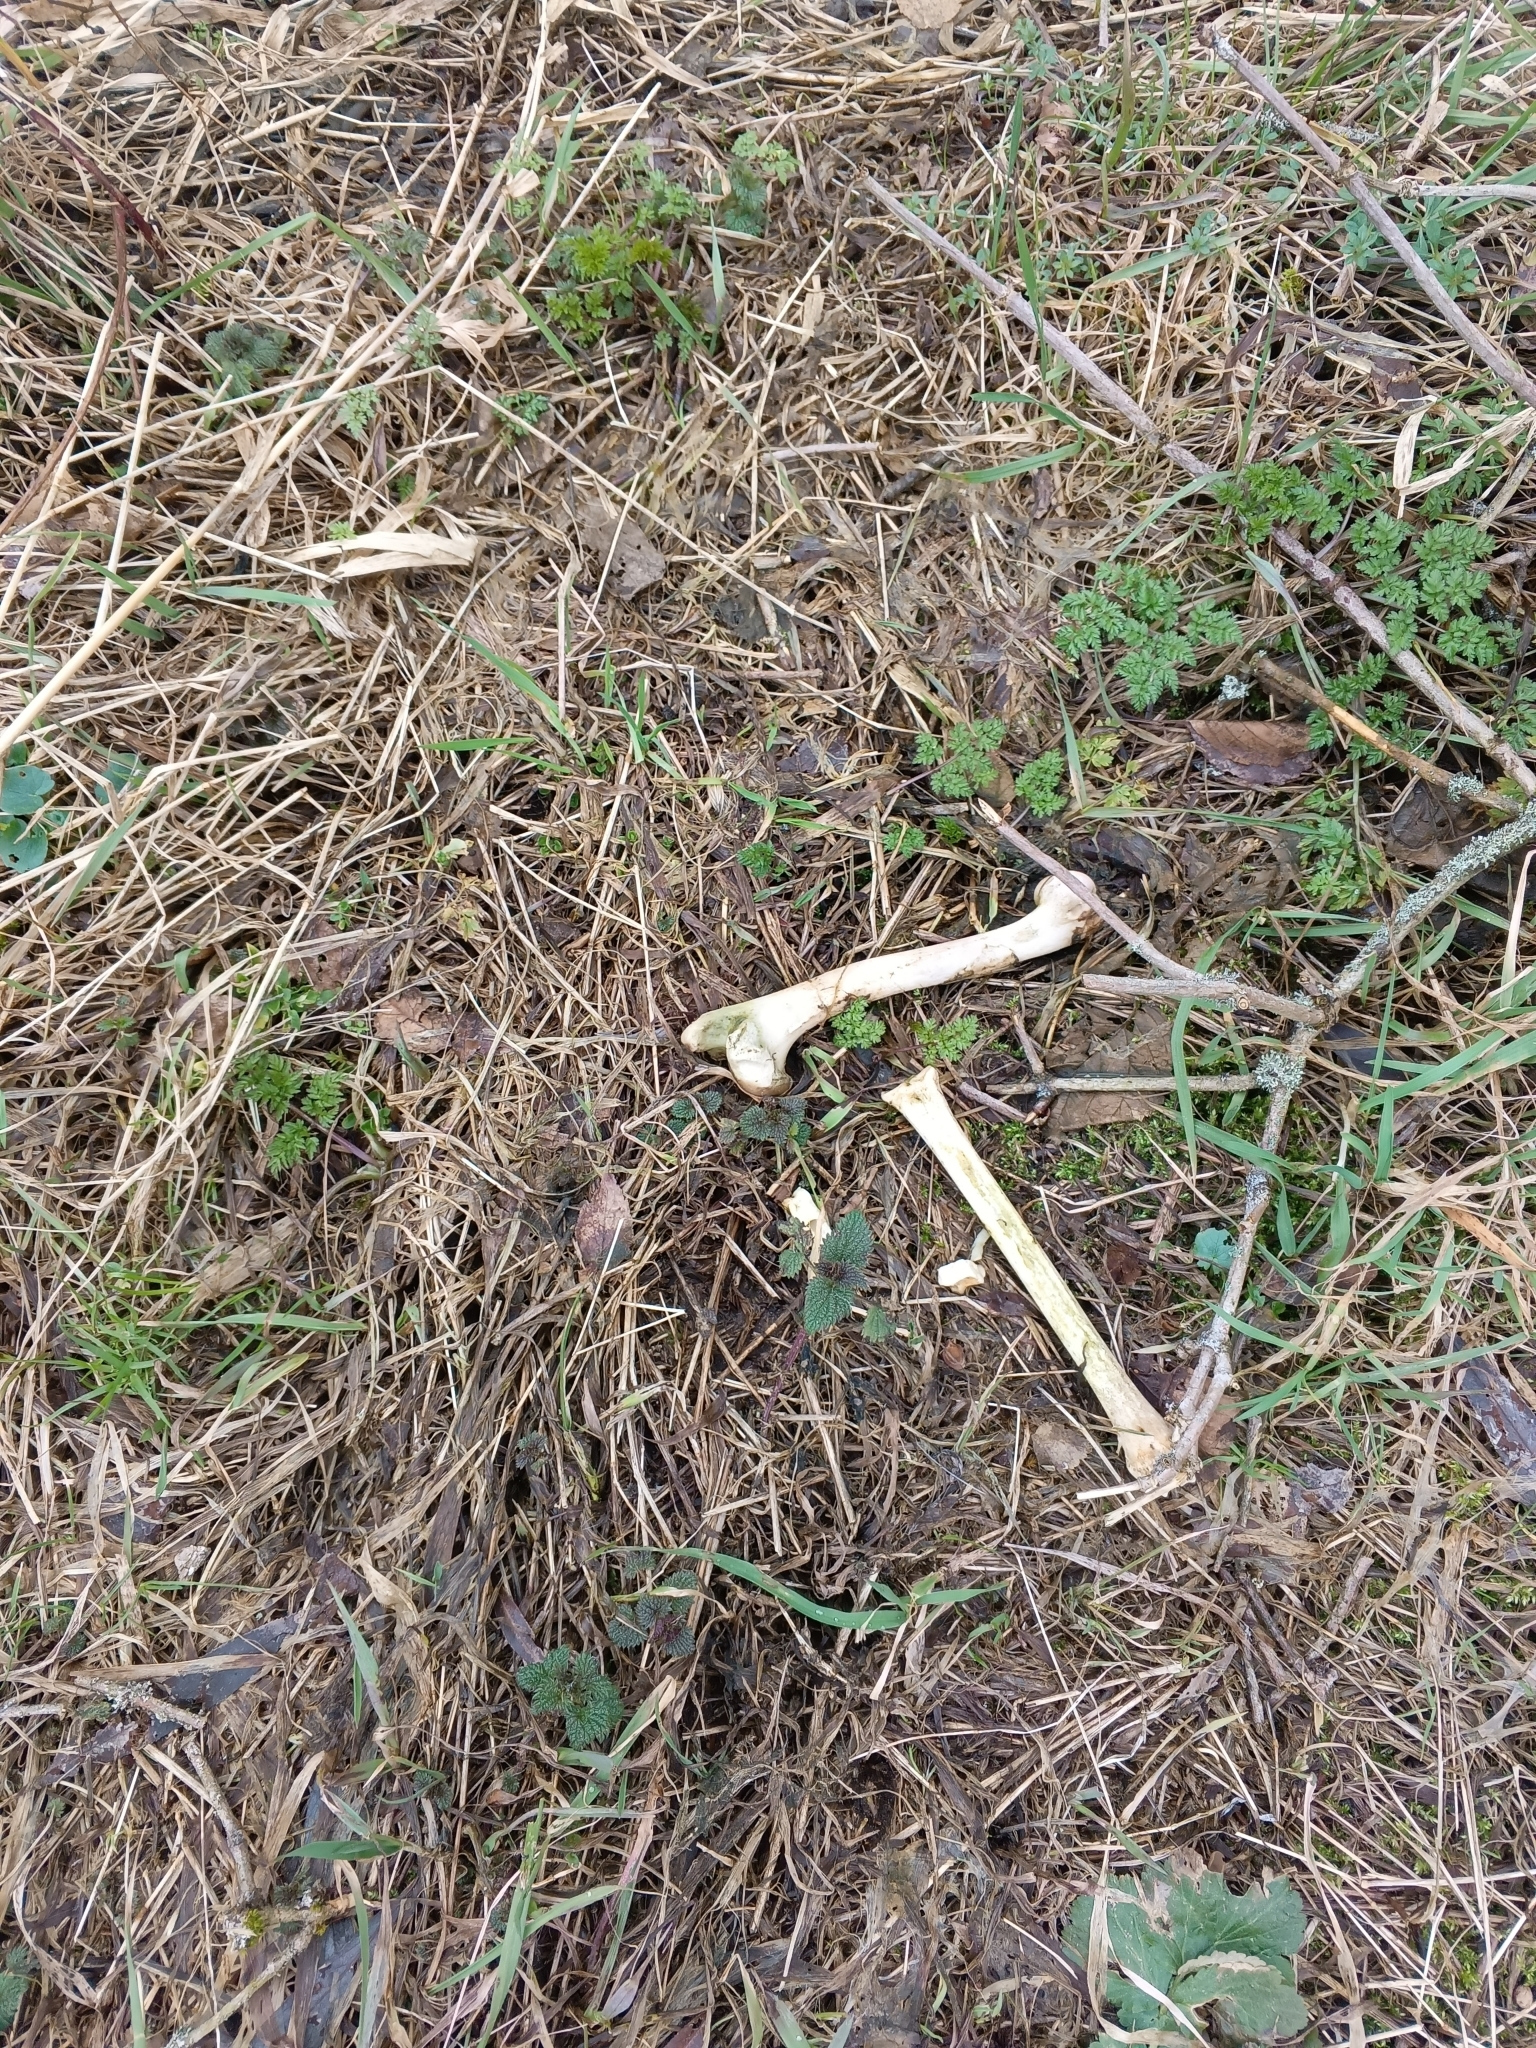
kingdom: Animalia
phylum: Chordata
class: Mammalia
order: Artiodactyla
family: Cervidae
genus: Capreolus
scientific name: Capreolus capreolus
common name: Western roe deer
